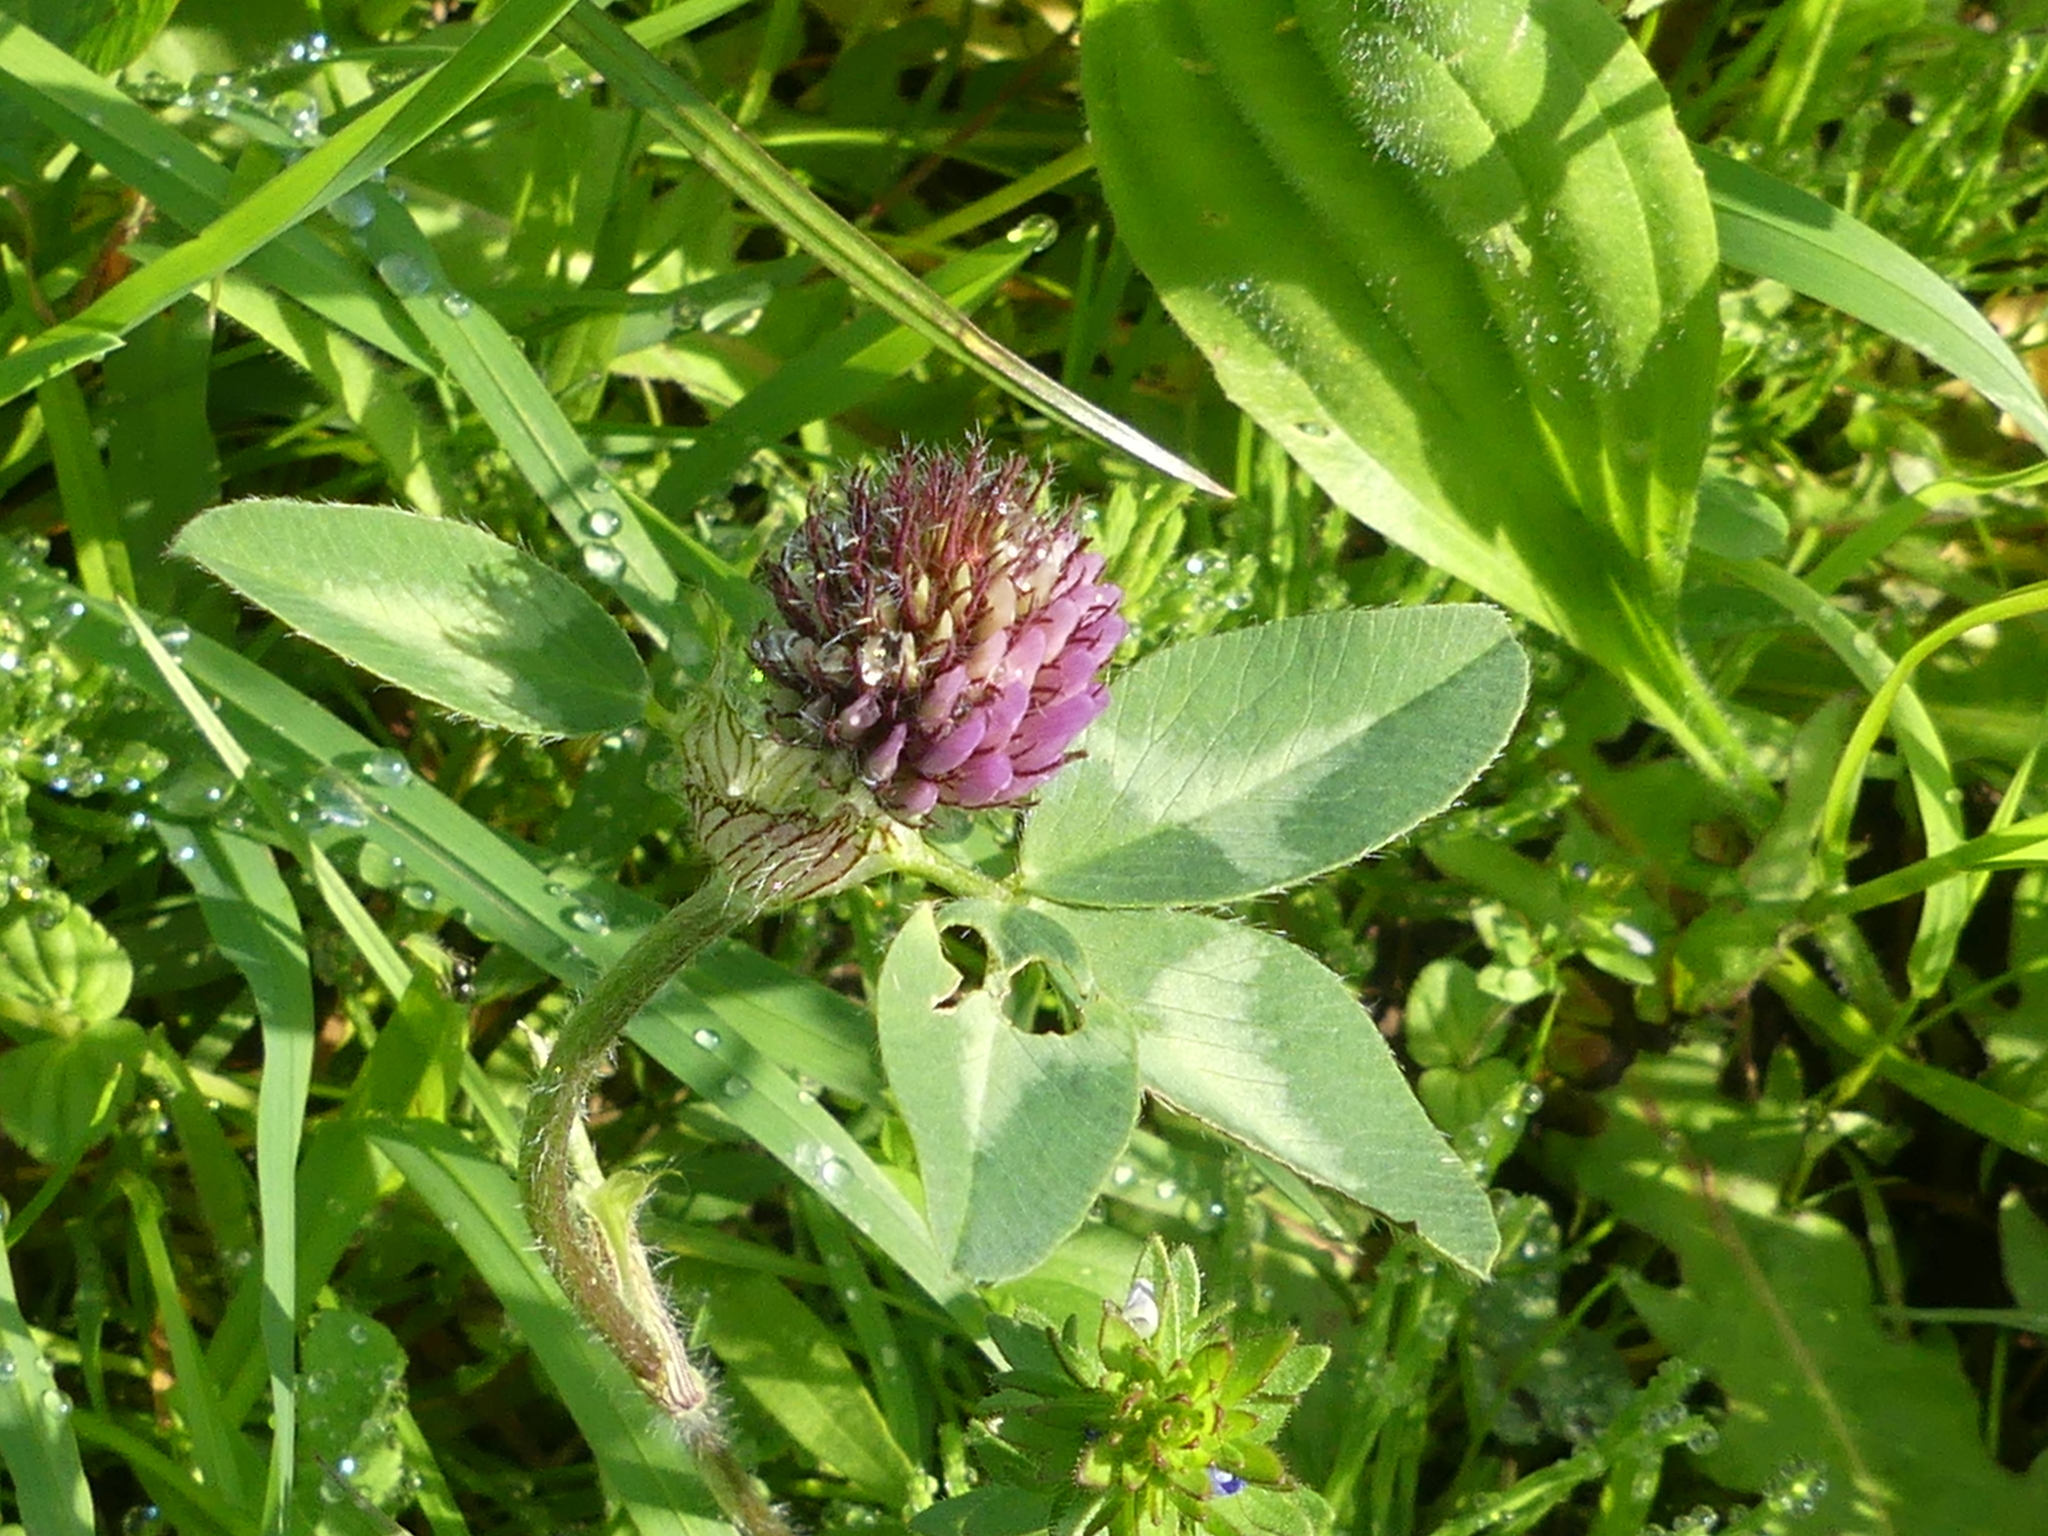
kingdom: Plantae
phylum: Tracheophyta
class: Magnoliopsida
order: Fabales
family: Fabaceae
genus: Trifolium
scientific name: Trifolium pratense
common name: Red clover
